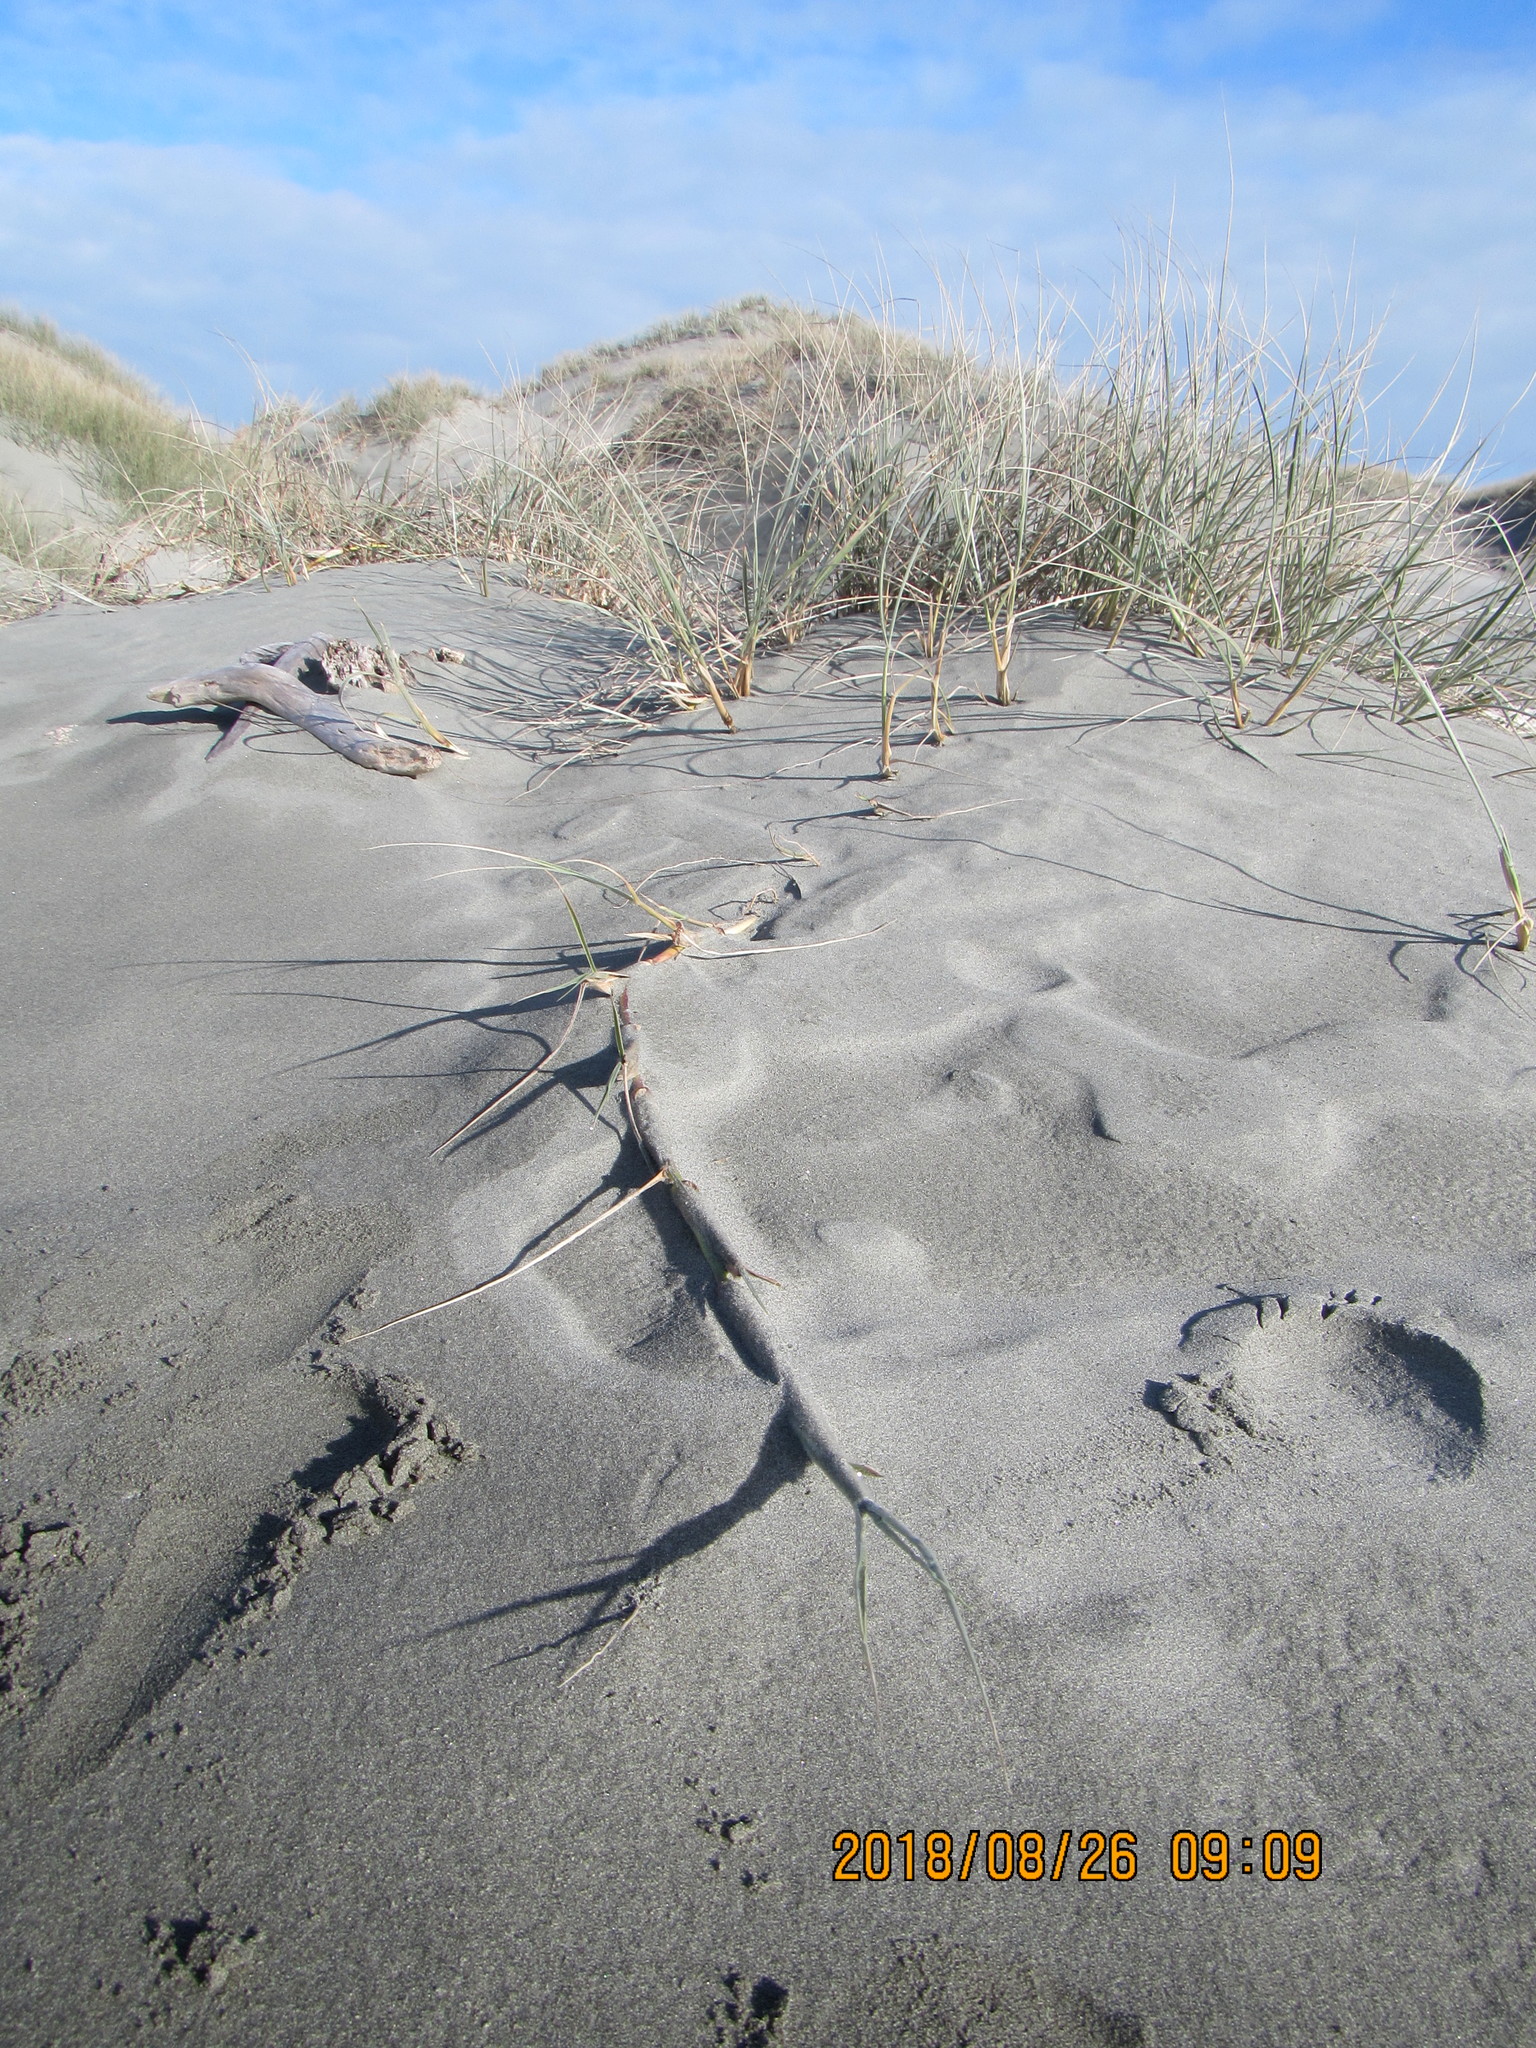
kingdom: Plantae
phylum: Tracheophyta
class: Liliopsida
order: Poales
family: Poaceae
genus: Spinifex
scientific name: Spinifex sericeus
